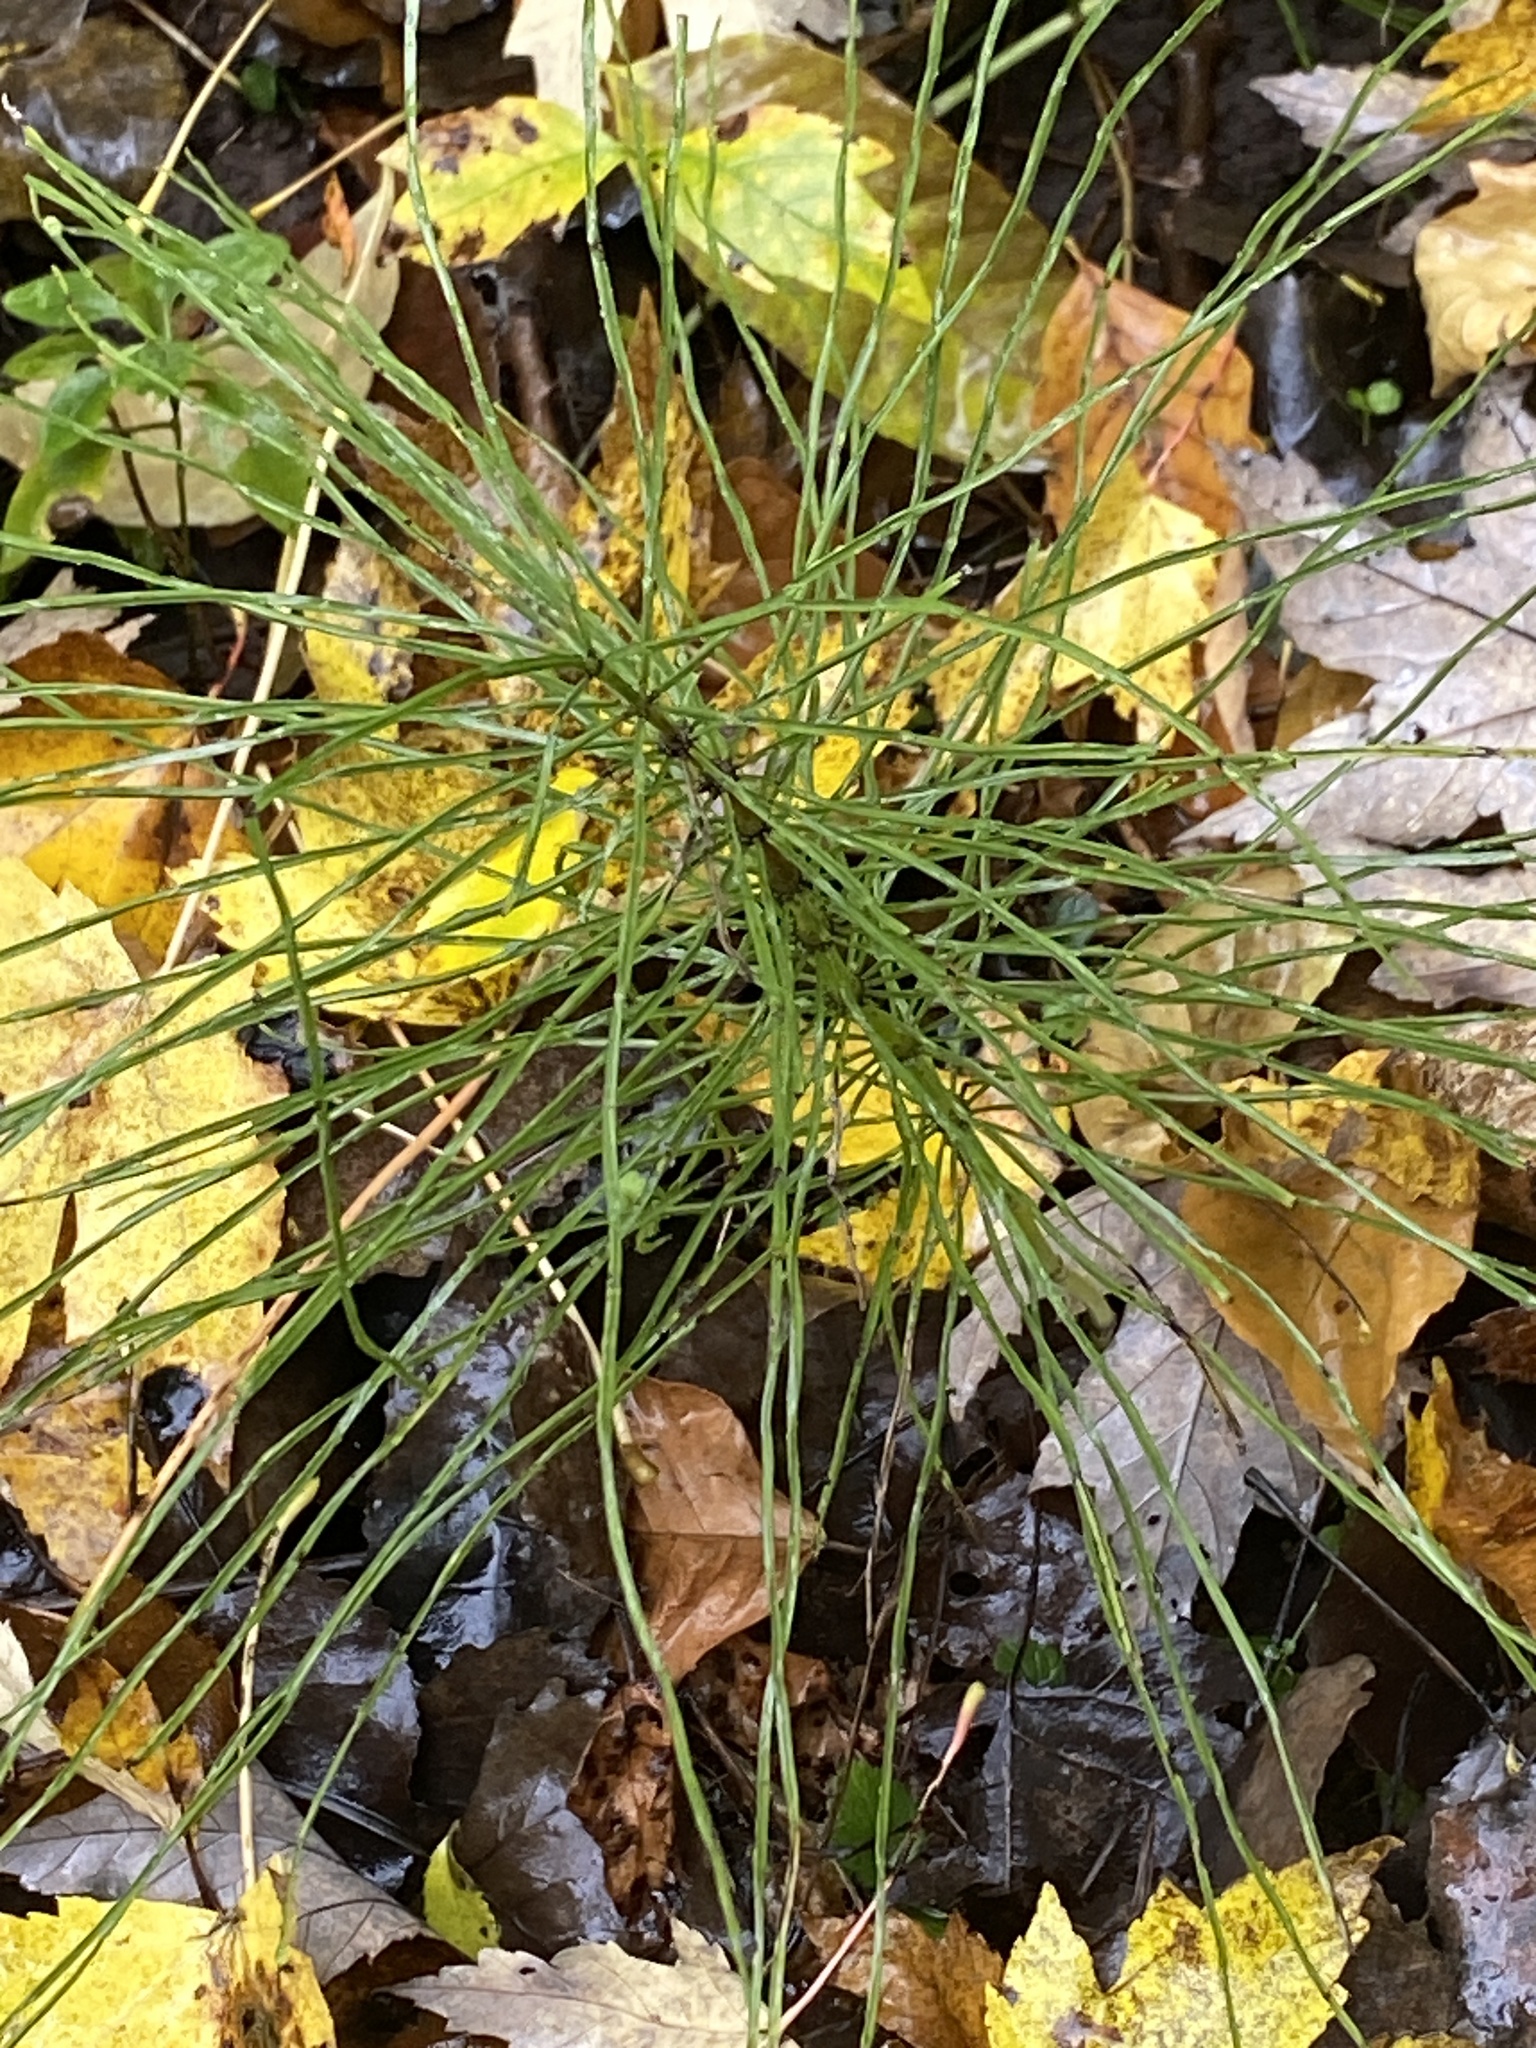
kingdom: Plantae
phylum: Tracheophyta
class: Polypodiopsida
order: Equisetales
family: Equisetaceae
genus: Equisetum
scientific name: Equisetum arvense
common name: Field horsetail
